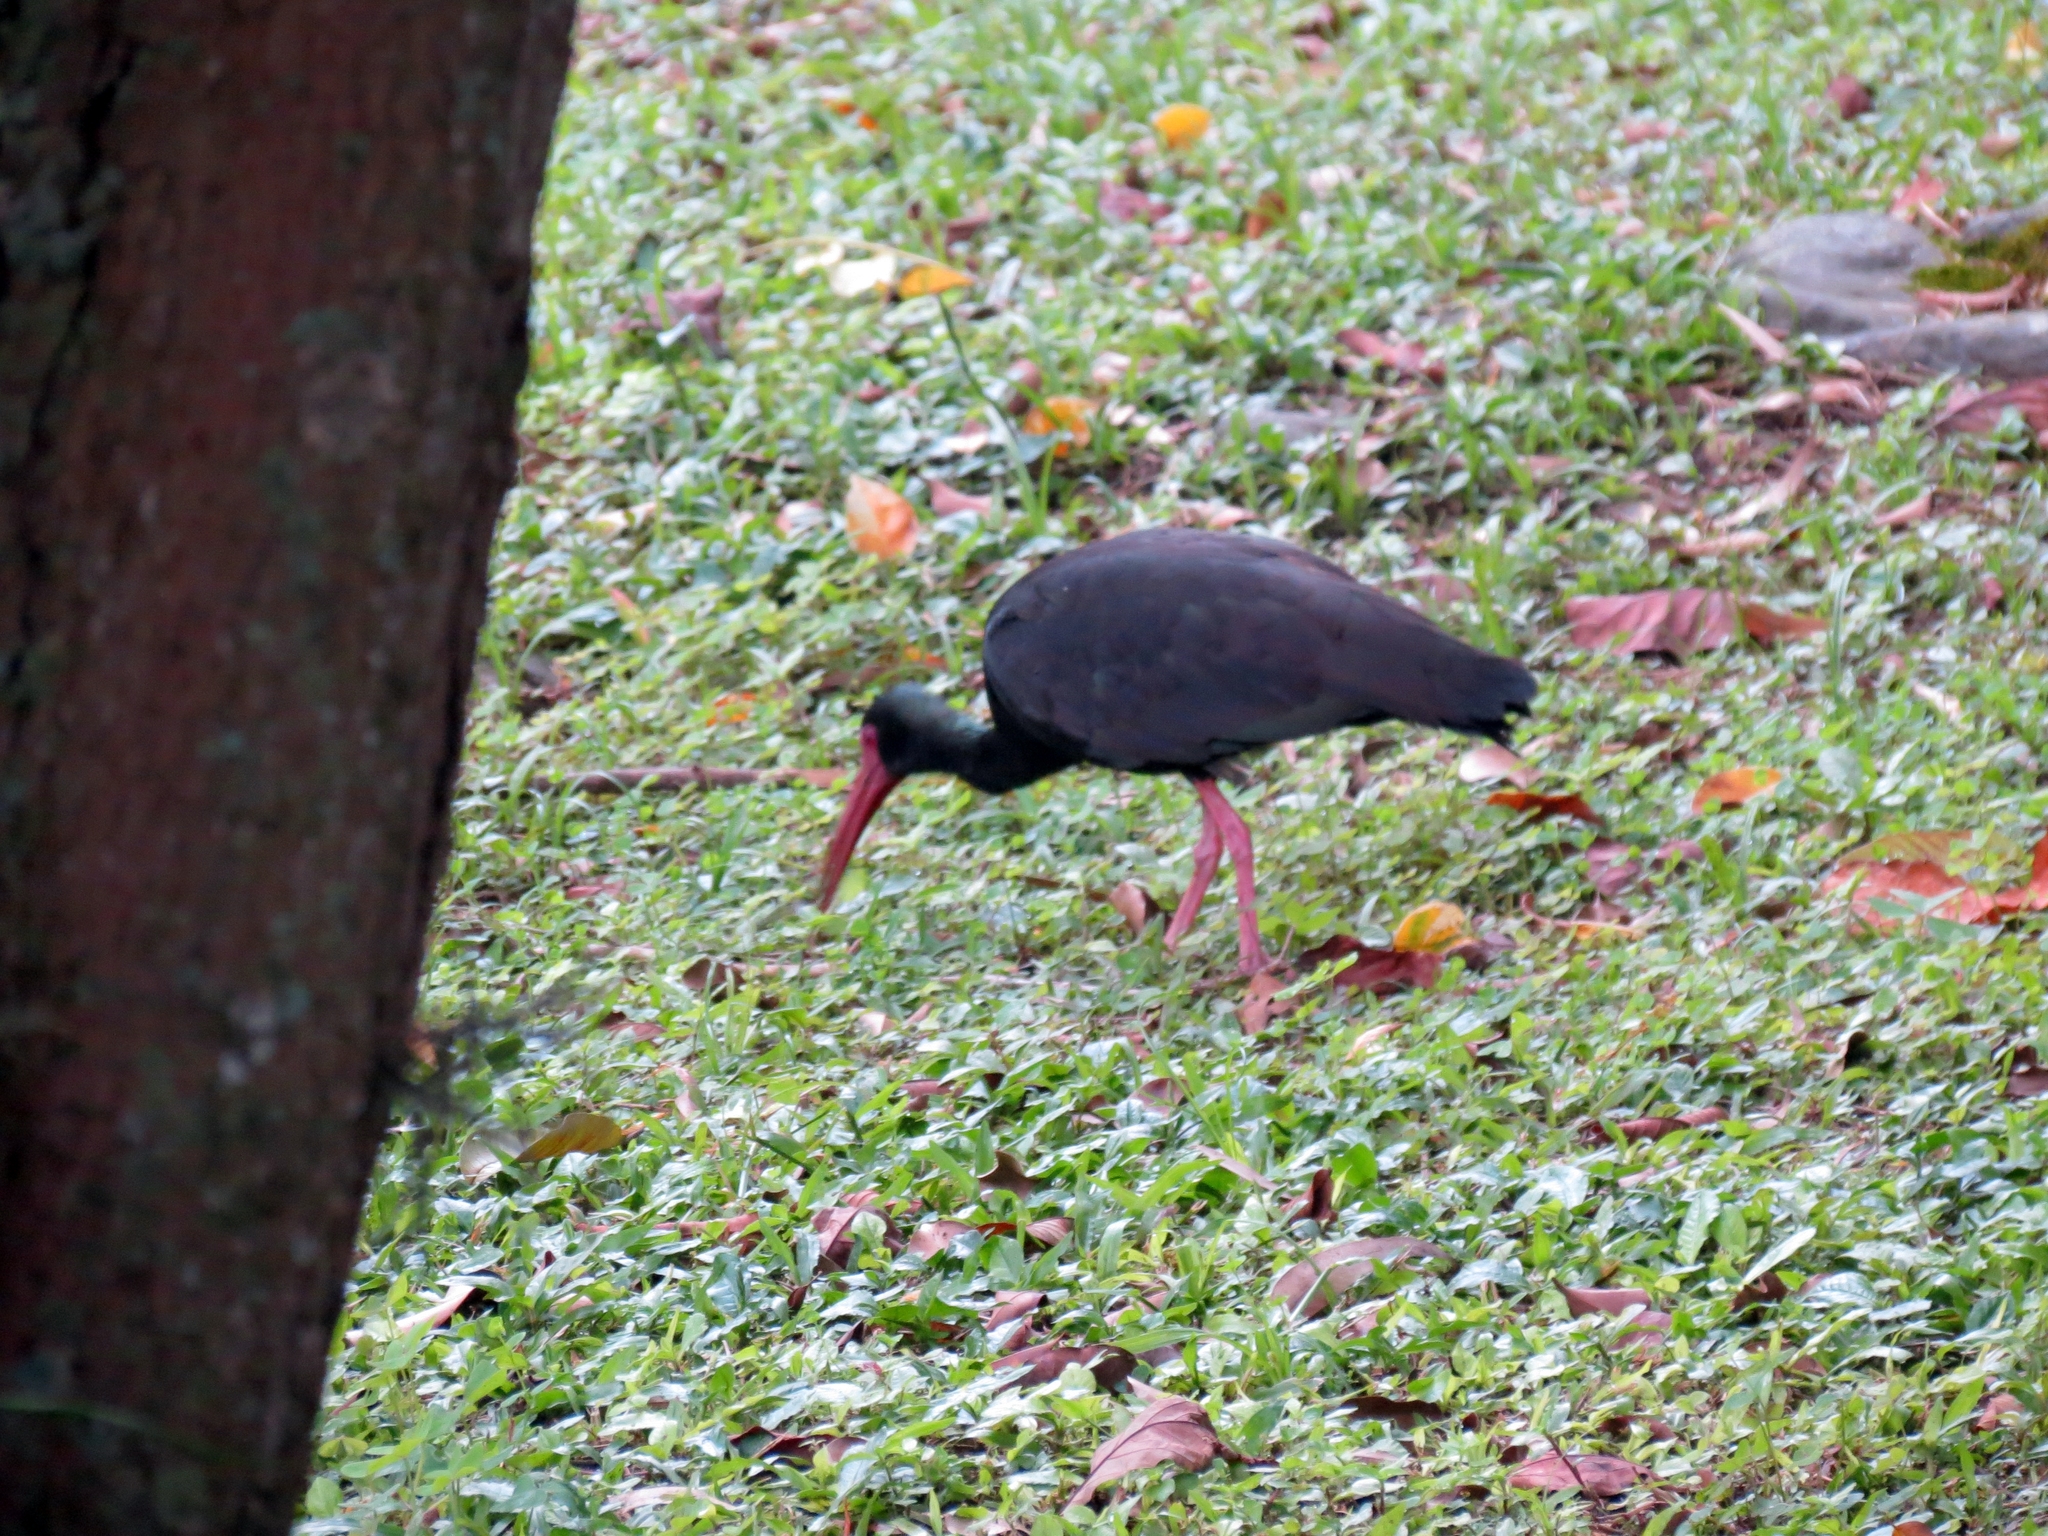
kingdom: Animalia
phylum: Chordata
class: Aves
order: Pelecaniformes
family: Threskiornithidae
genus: Phimosus
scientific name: Phimosus infuscatus
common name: Bare-faced ibis
